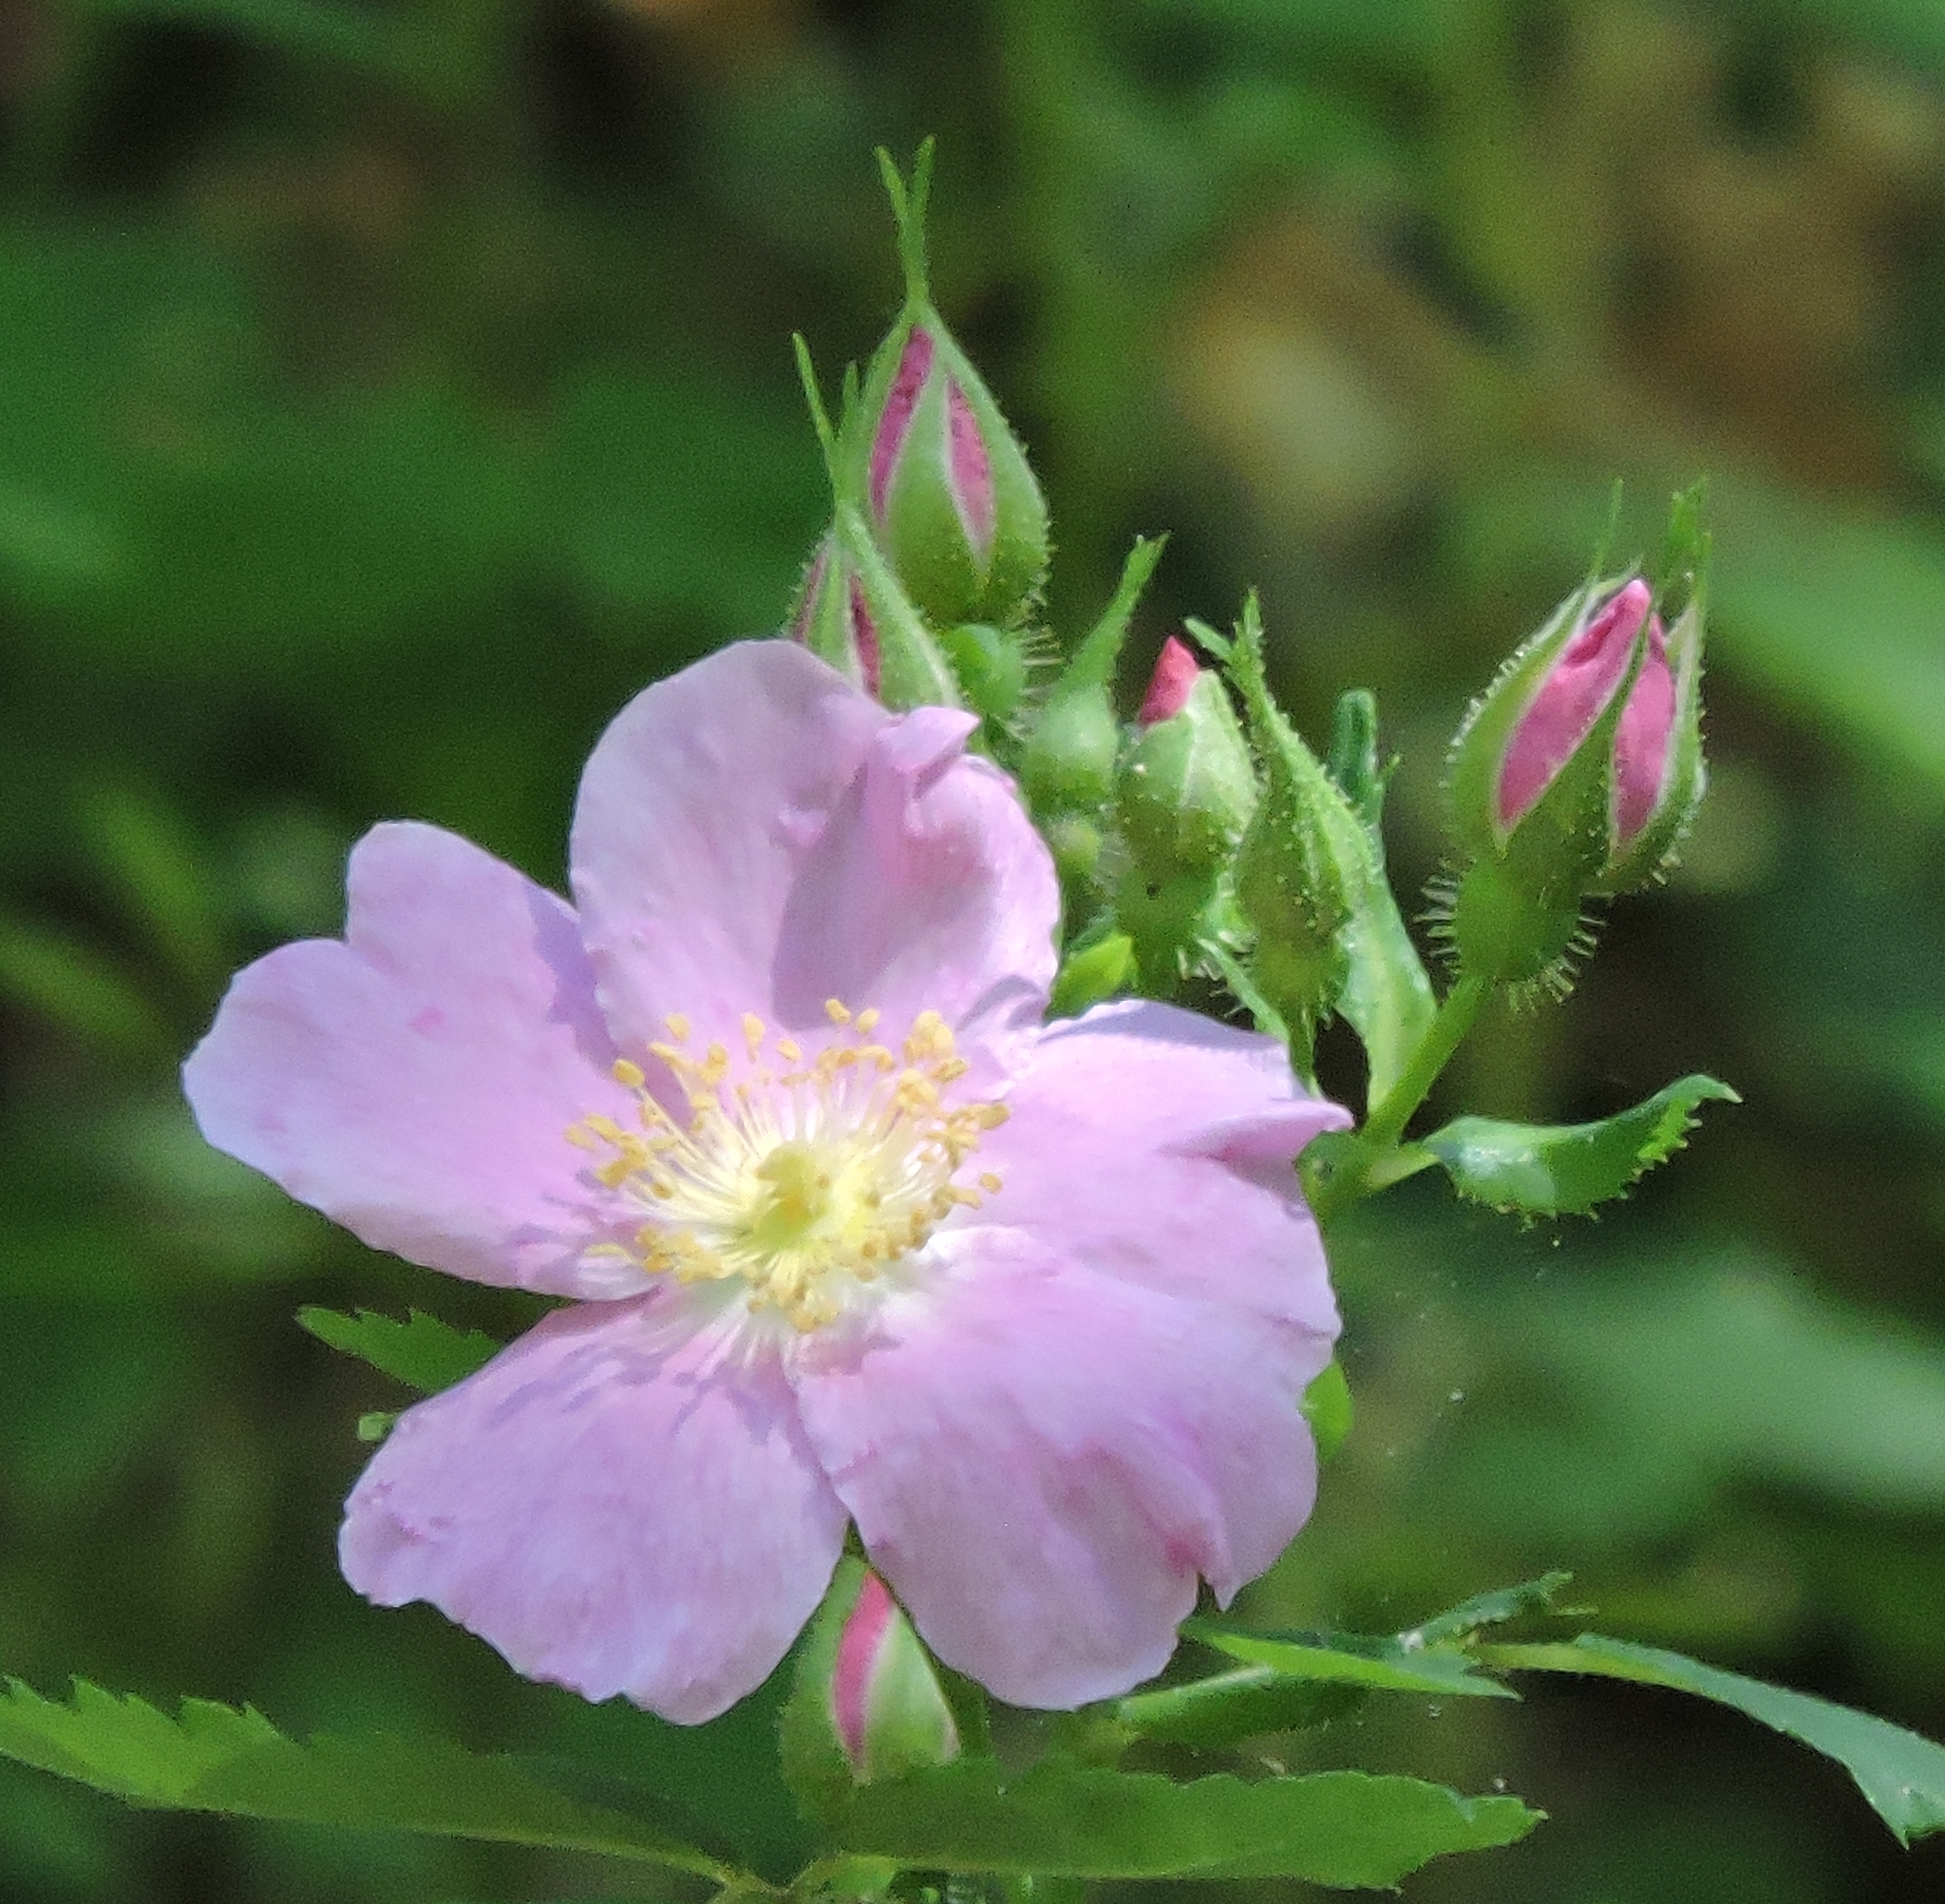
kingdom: Plantae
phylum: Tracheophyta
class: Magnoliopsida
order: Rosales
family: Rosaceae
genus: Rosa
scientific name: Rosa spithamea
